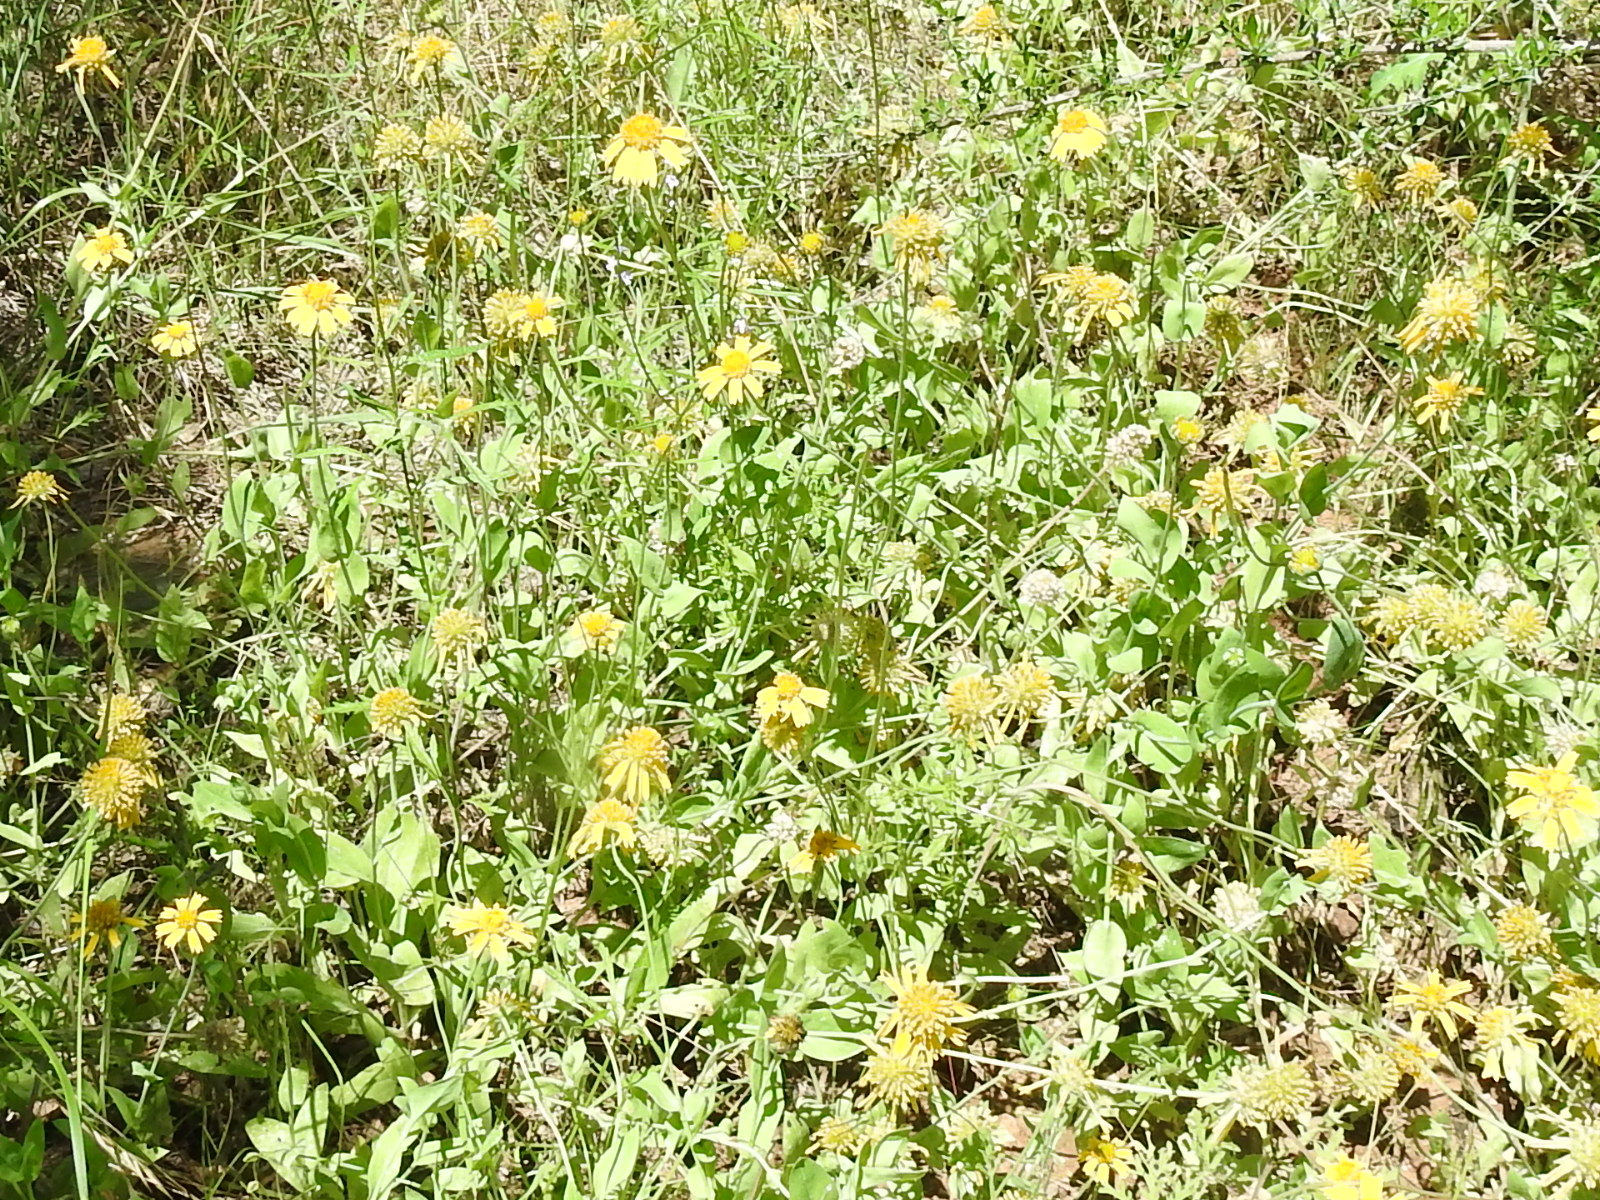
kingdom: Plantae
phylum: Tracheophyta
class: Magnoliopsida
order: Asterales
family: Asteraceae
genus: Amblyolepis
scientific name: Amblyolepis setigera
